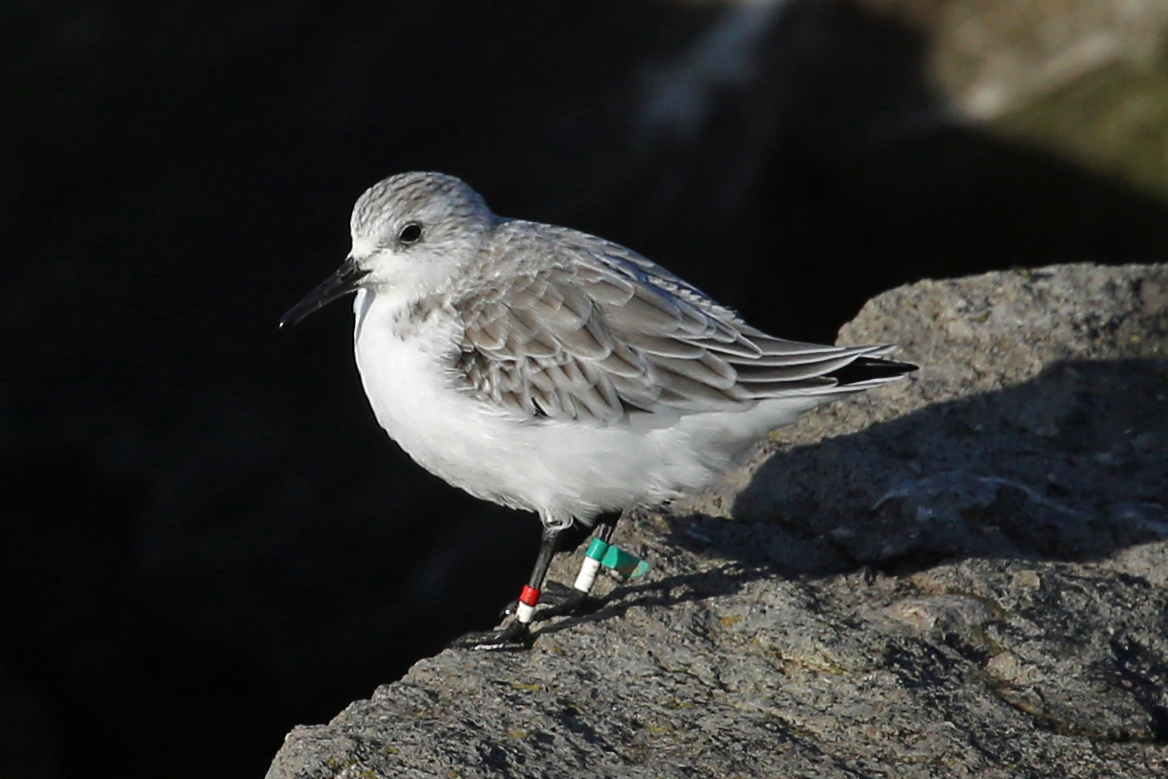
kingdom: Animalia
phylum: Chordata
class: Aves
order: Charadriiformes
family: Scolopacidae
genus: Calidris
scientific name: Calidris alba
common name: Sanderling
